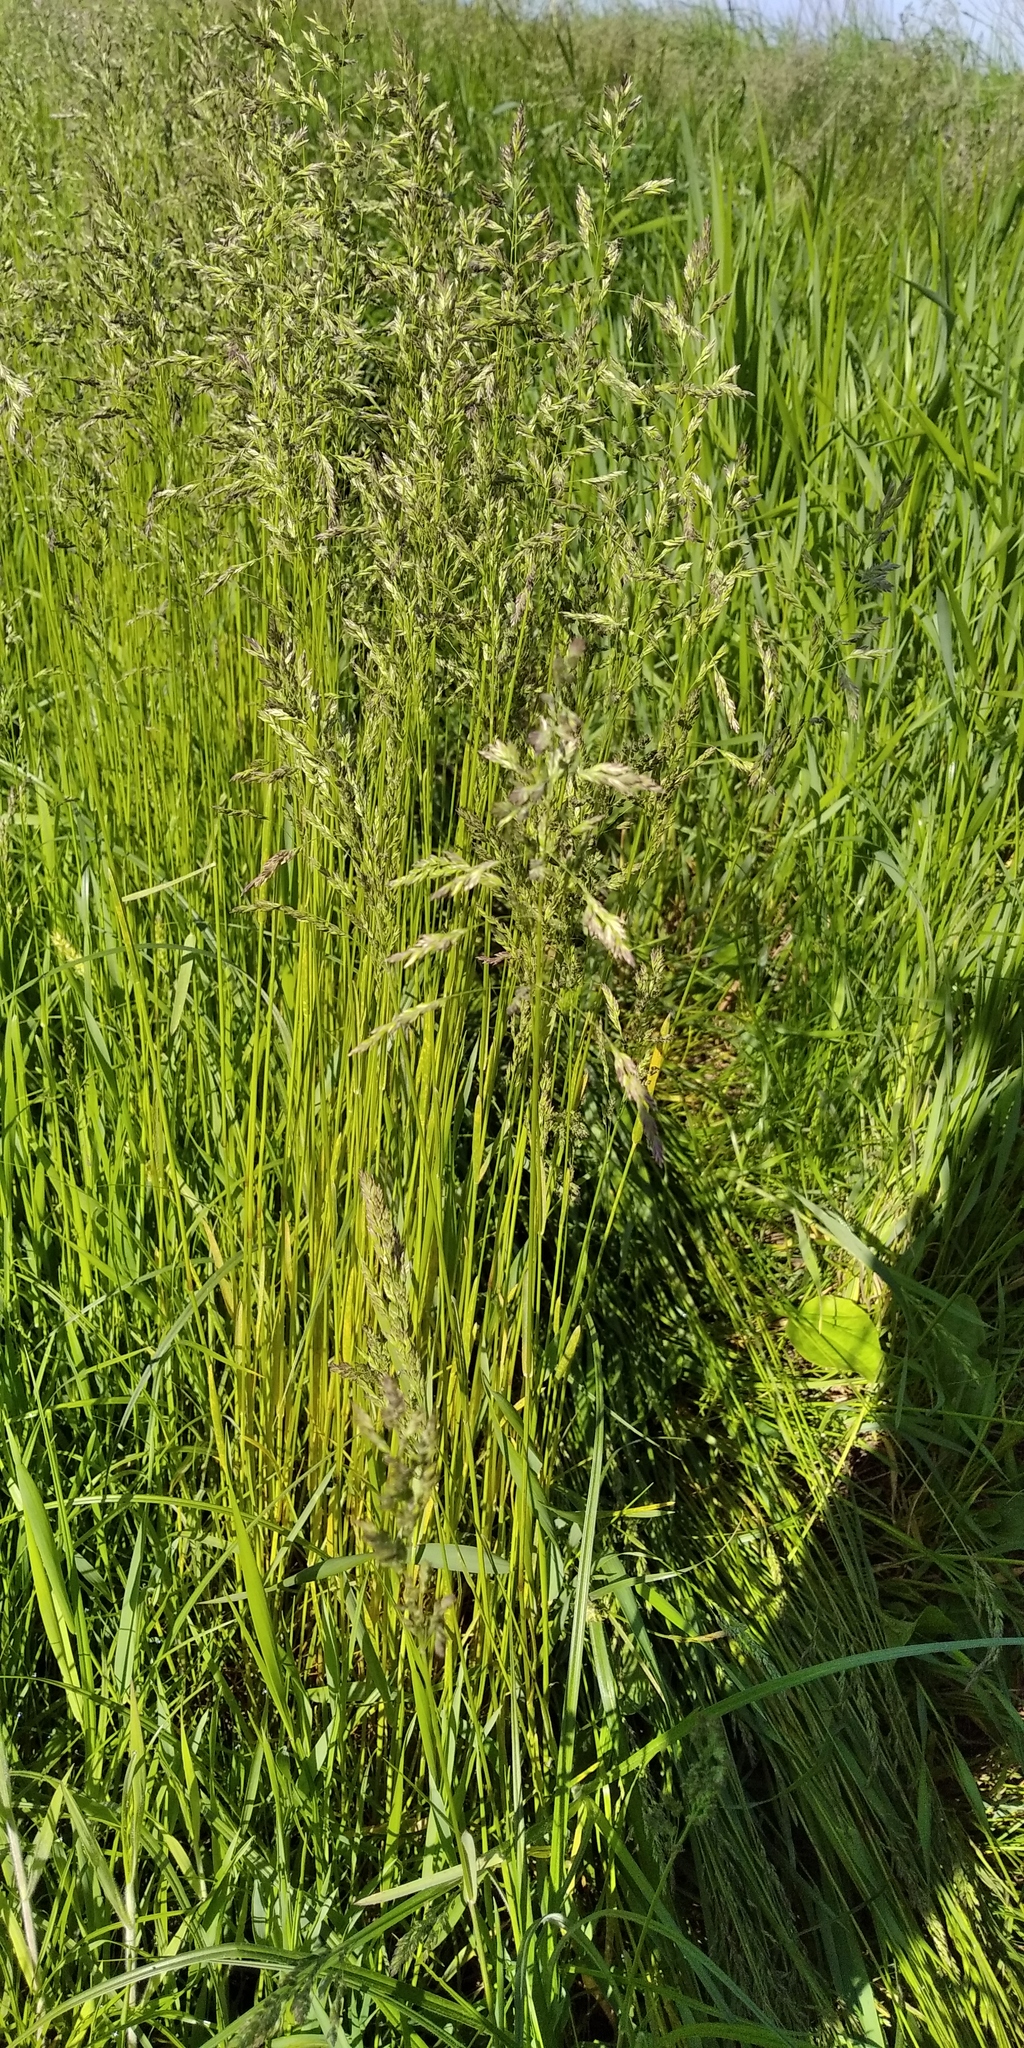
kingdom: Plantae
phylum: Tracheophyta
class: Liliopsida
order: Poales
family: Poaceae
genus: Poa
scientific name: Poa pratensis
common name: Kentucky bluegrass
